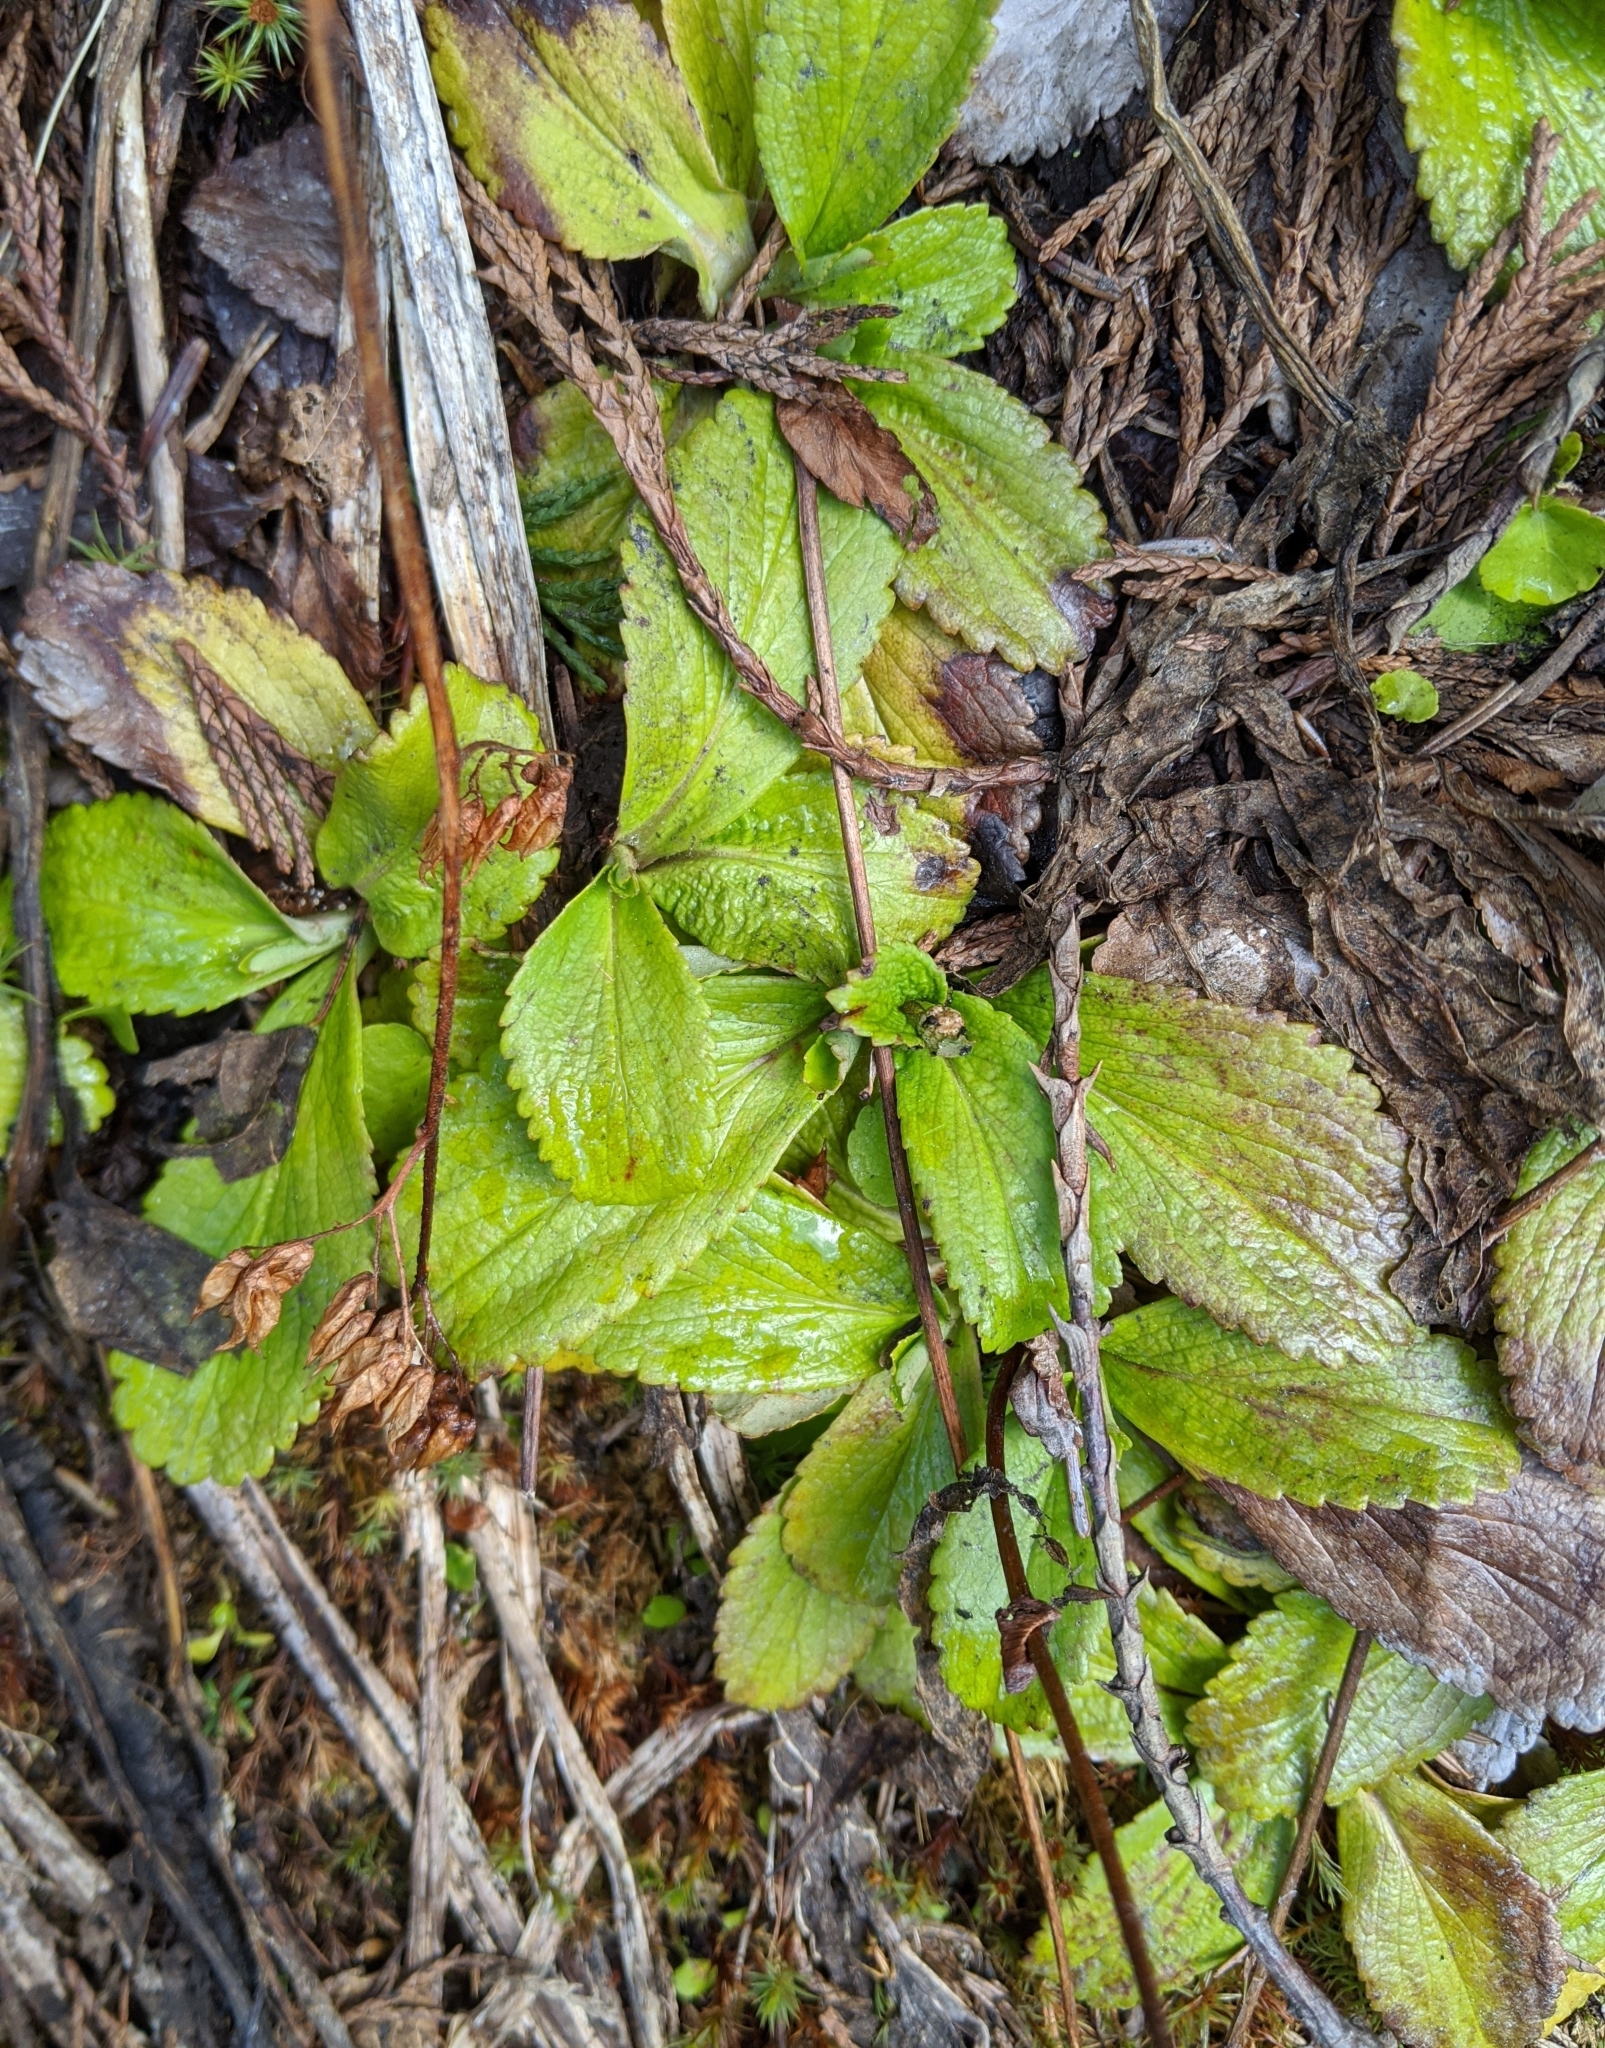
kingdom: Plantae
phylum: Tracheophyta
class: Magnoliopsida
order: Saxifragales
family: Saxifragaceae
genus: Leptarrhena
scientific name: Leptarrhena pyrolifolia
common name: Leatherleaf-saxifrage
